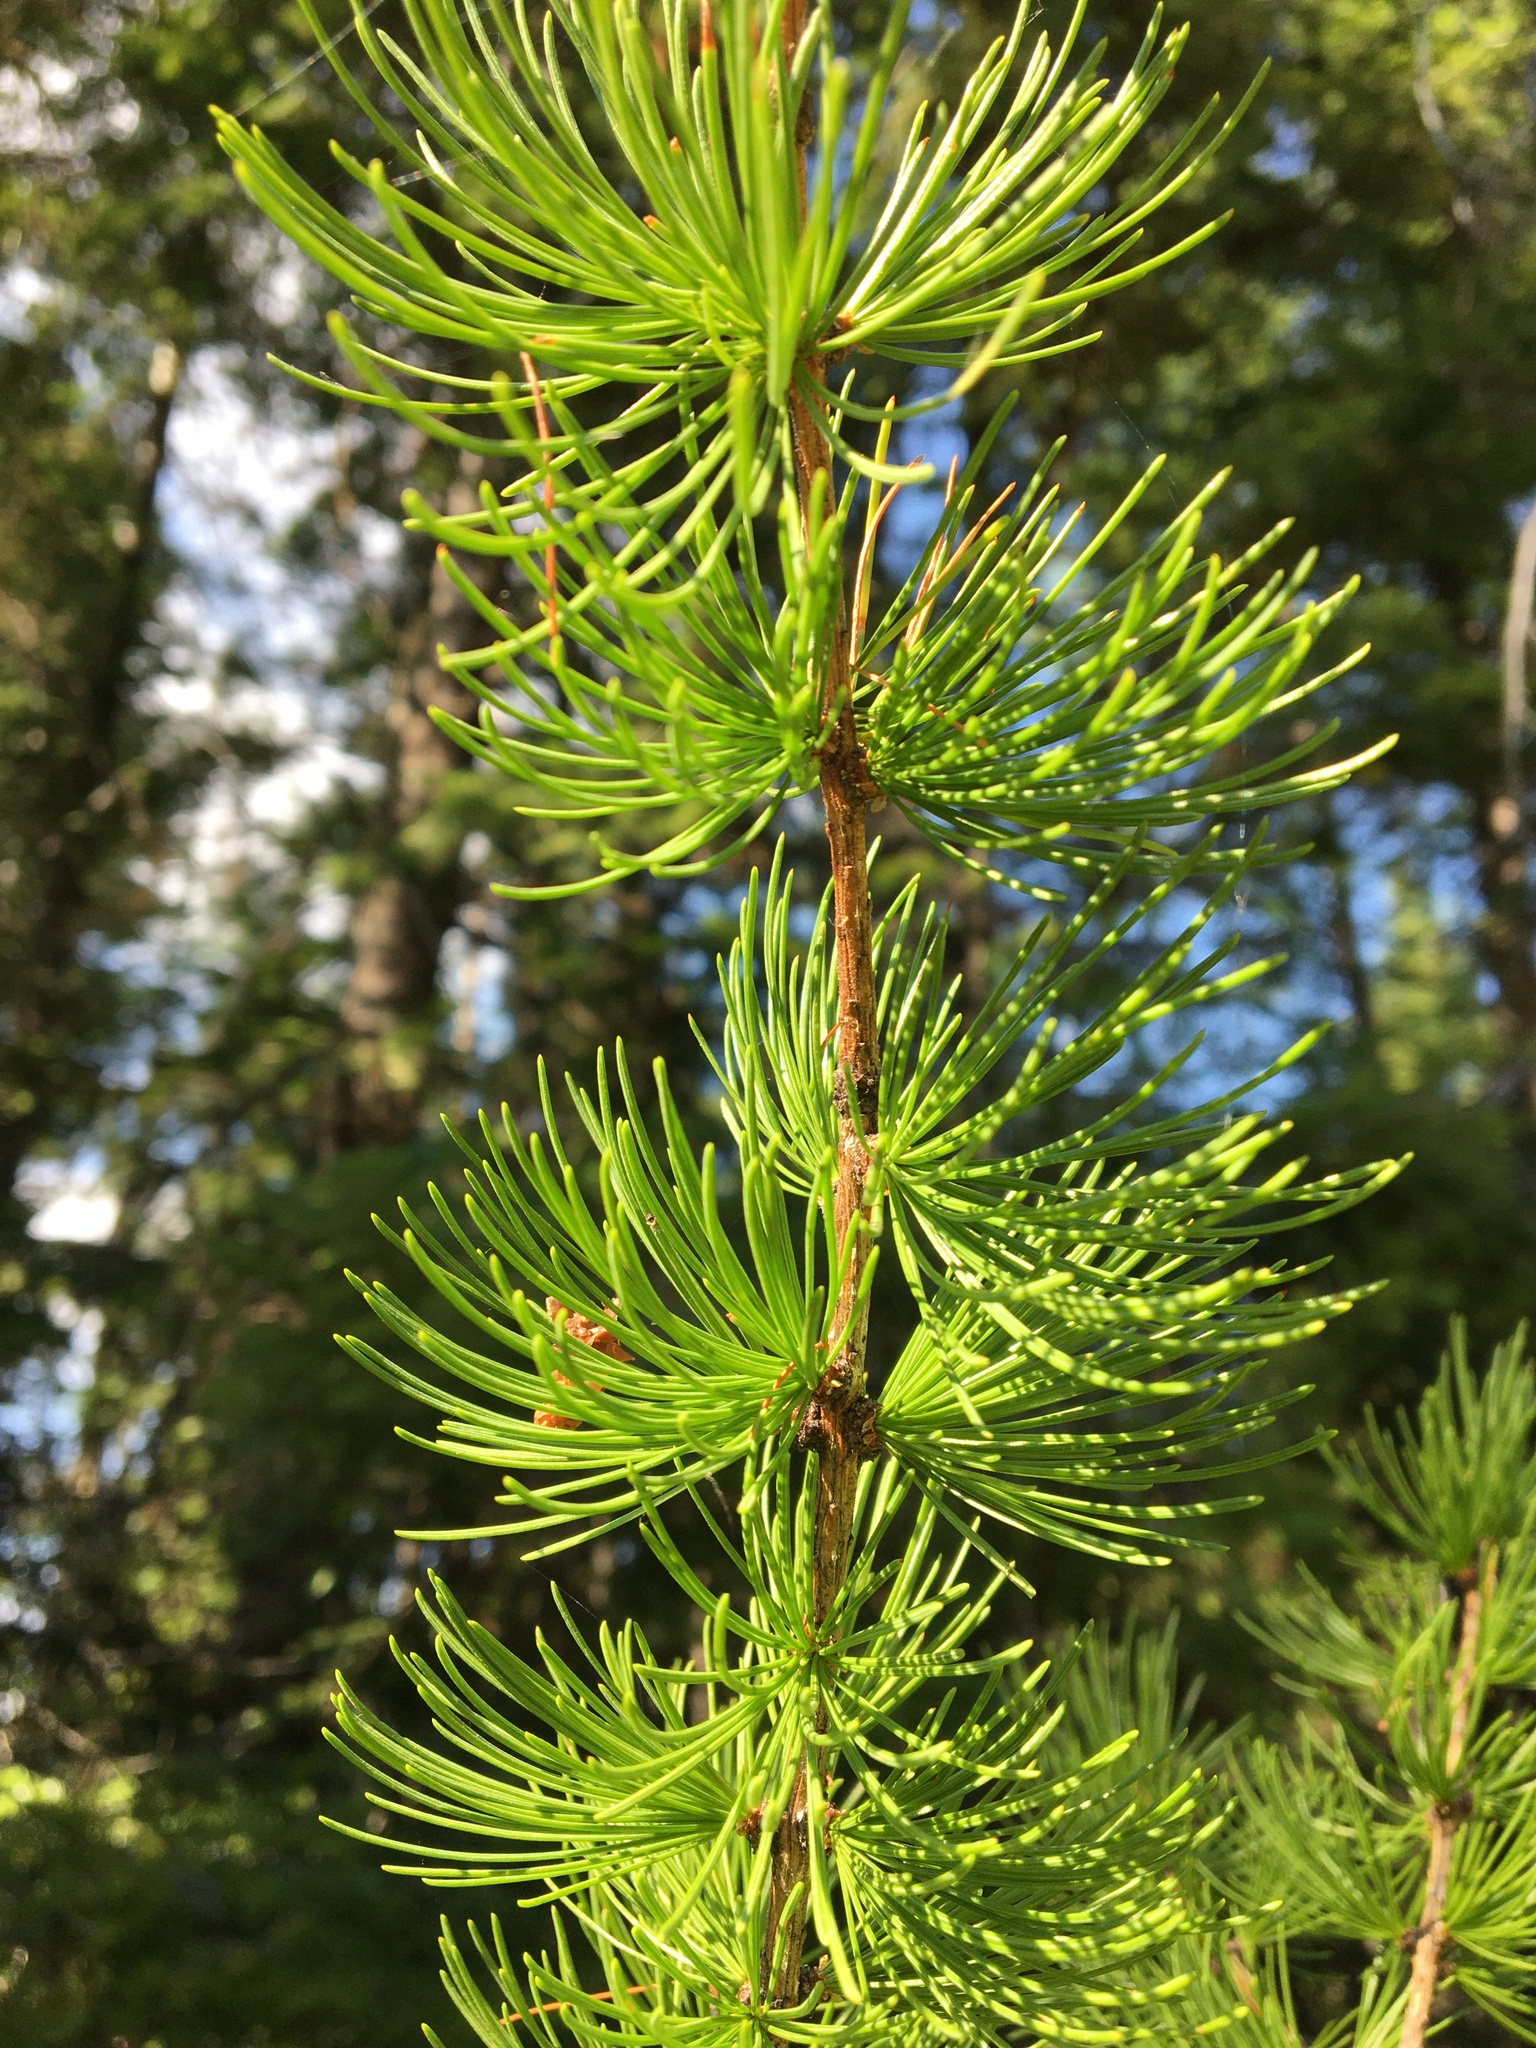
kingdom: Plantae
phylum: Tracheophyta
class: Pinopsida
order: Pinales
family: Pinaceae
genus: Larix
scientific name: Larix occidentalis
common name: Western larch
